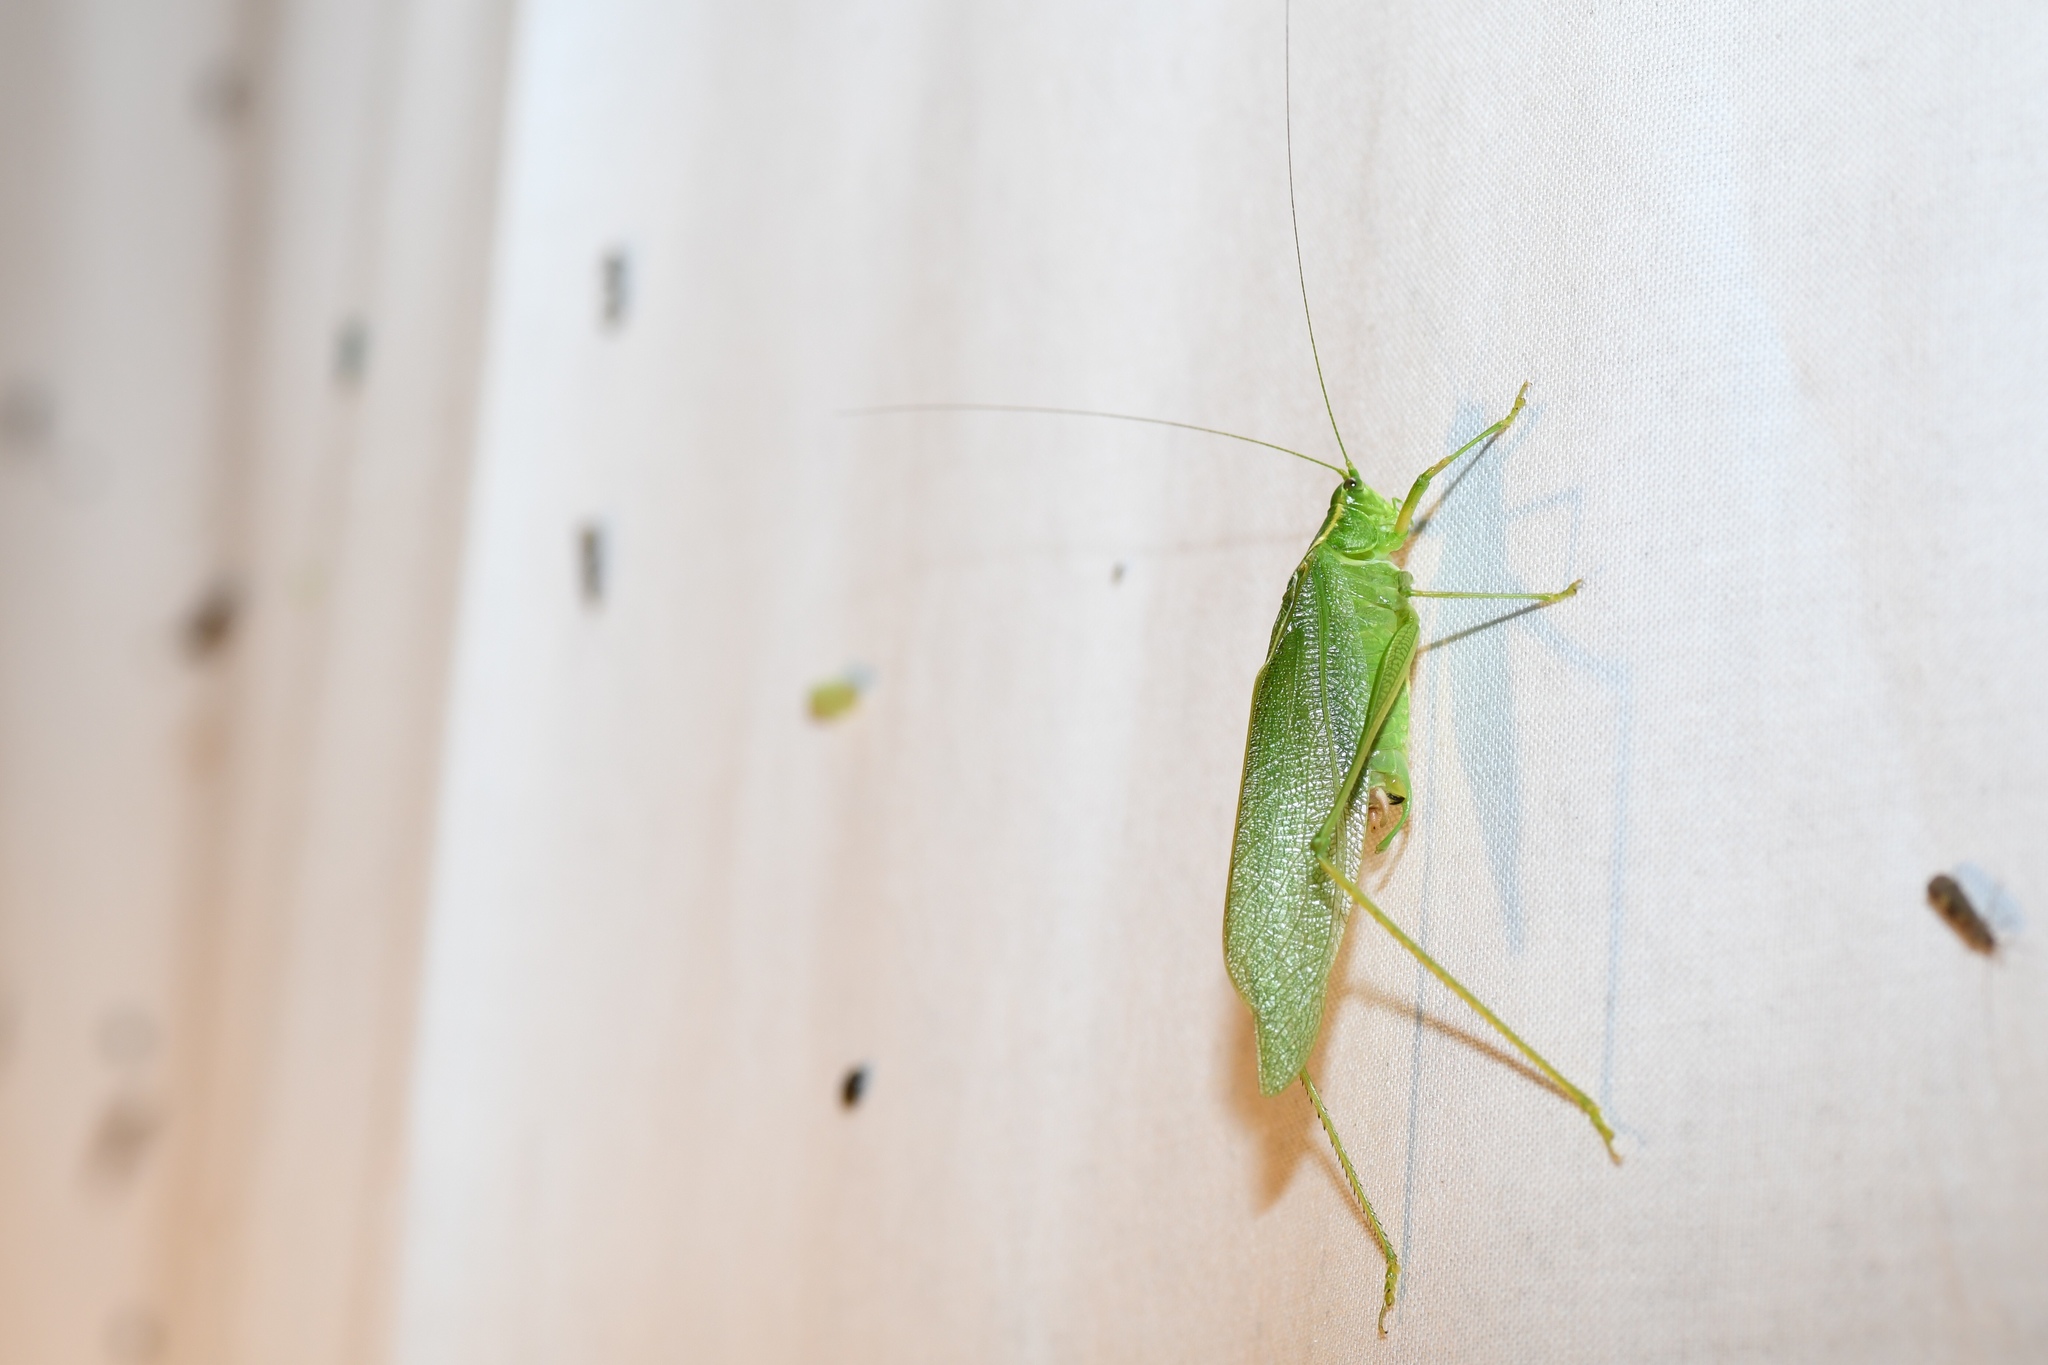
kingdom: Animalia
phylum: Arthropoda
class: Insecta
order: Orthoptera
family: Tettigoniidae
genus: Scudderia
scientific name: Scudderia septentrionalis
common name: Northern bush-katydid
